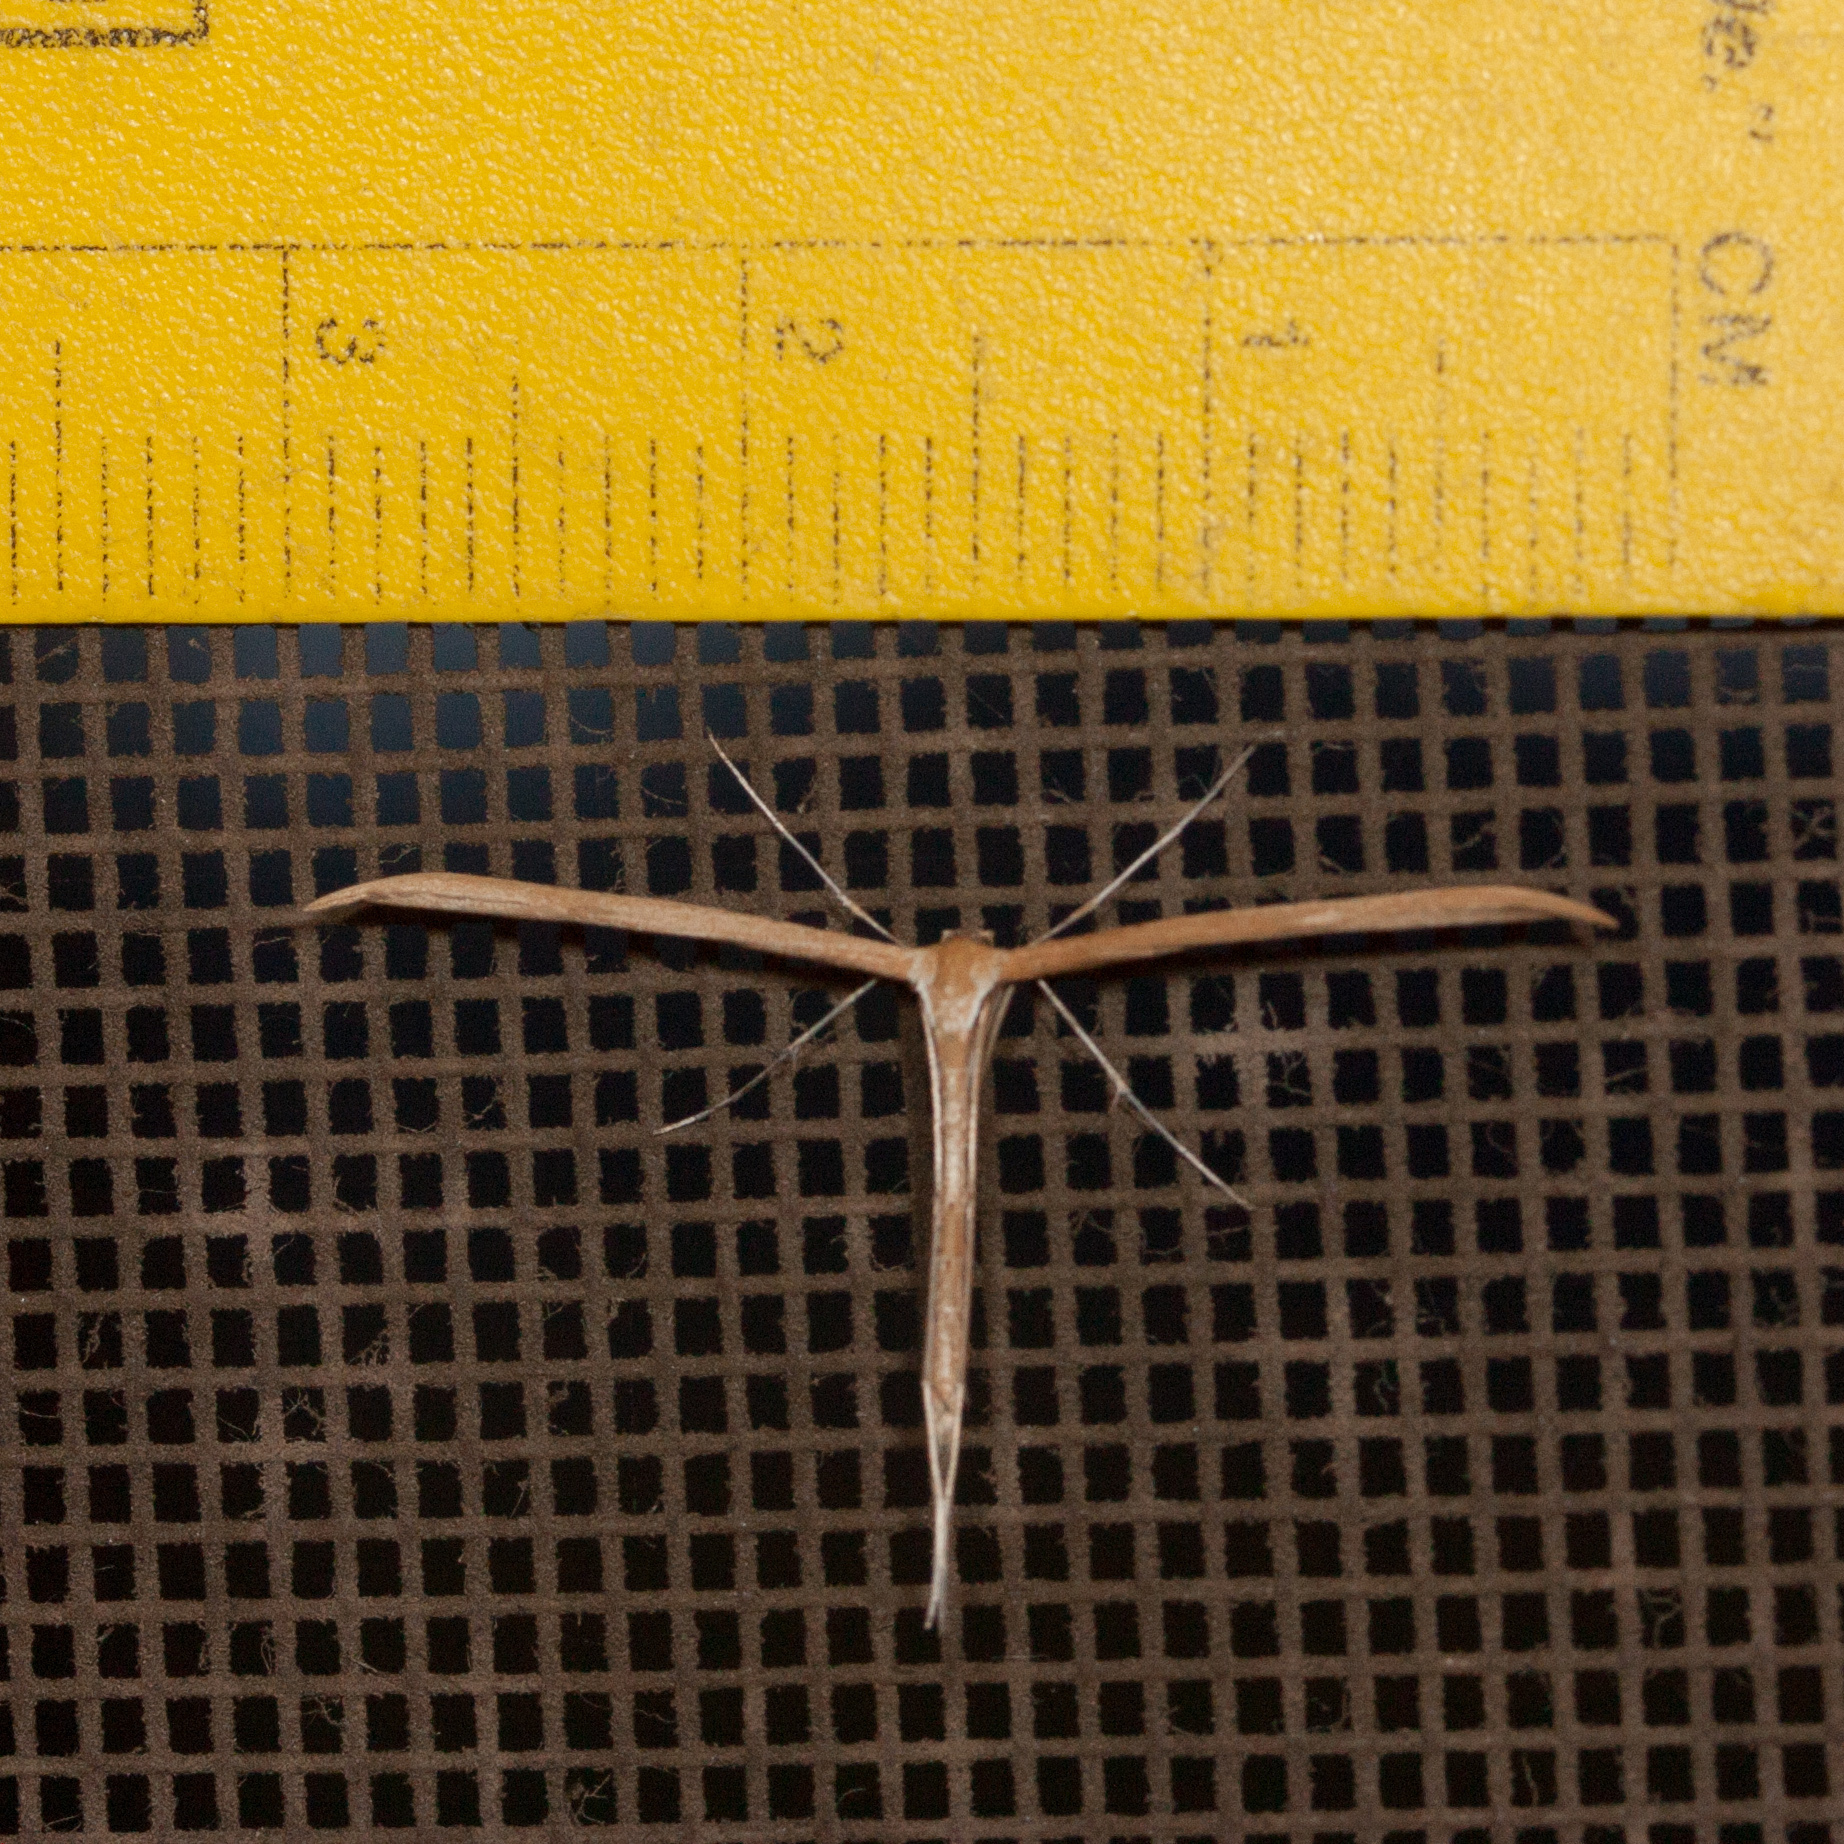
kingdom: Animalia
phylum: Arthropoda
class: Insecta
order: Lepidoptera
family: Pterophoridae
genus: Emmelina
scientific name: Emmelina monodactyla
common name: Common plume
